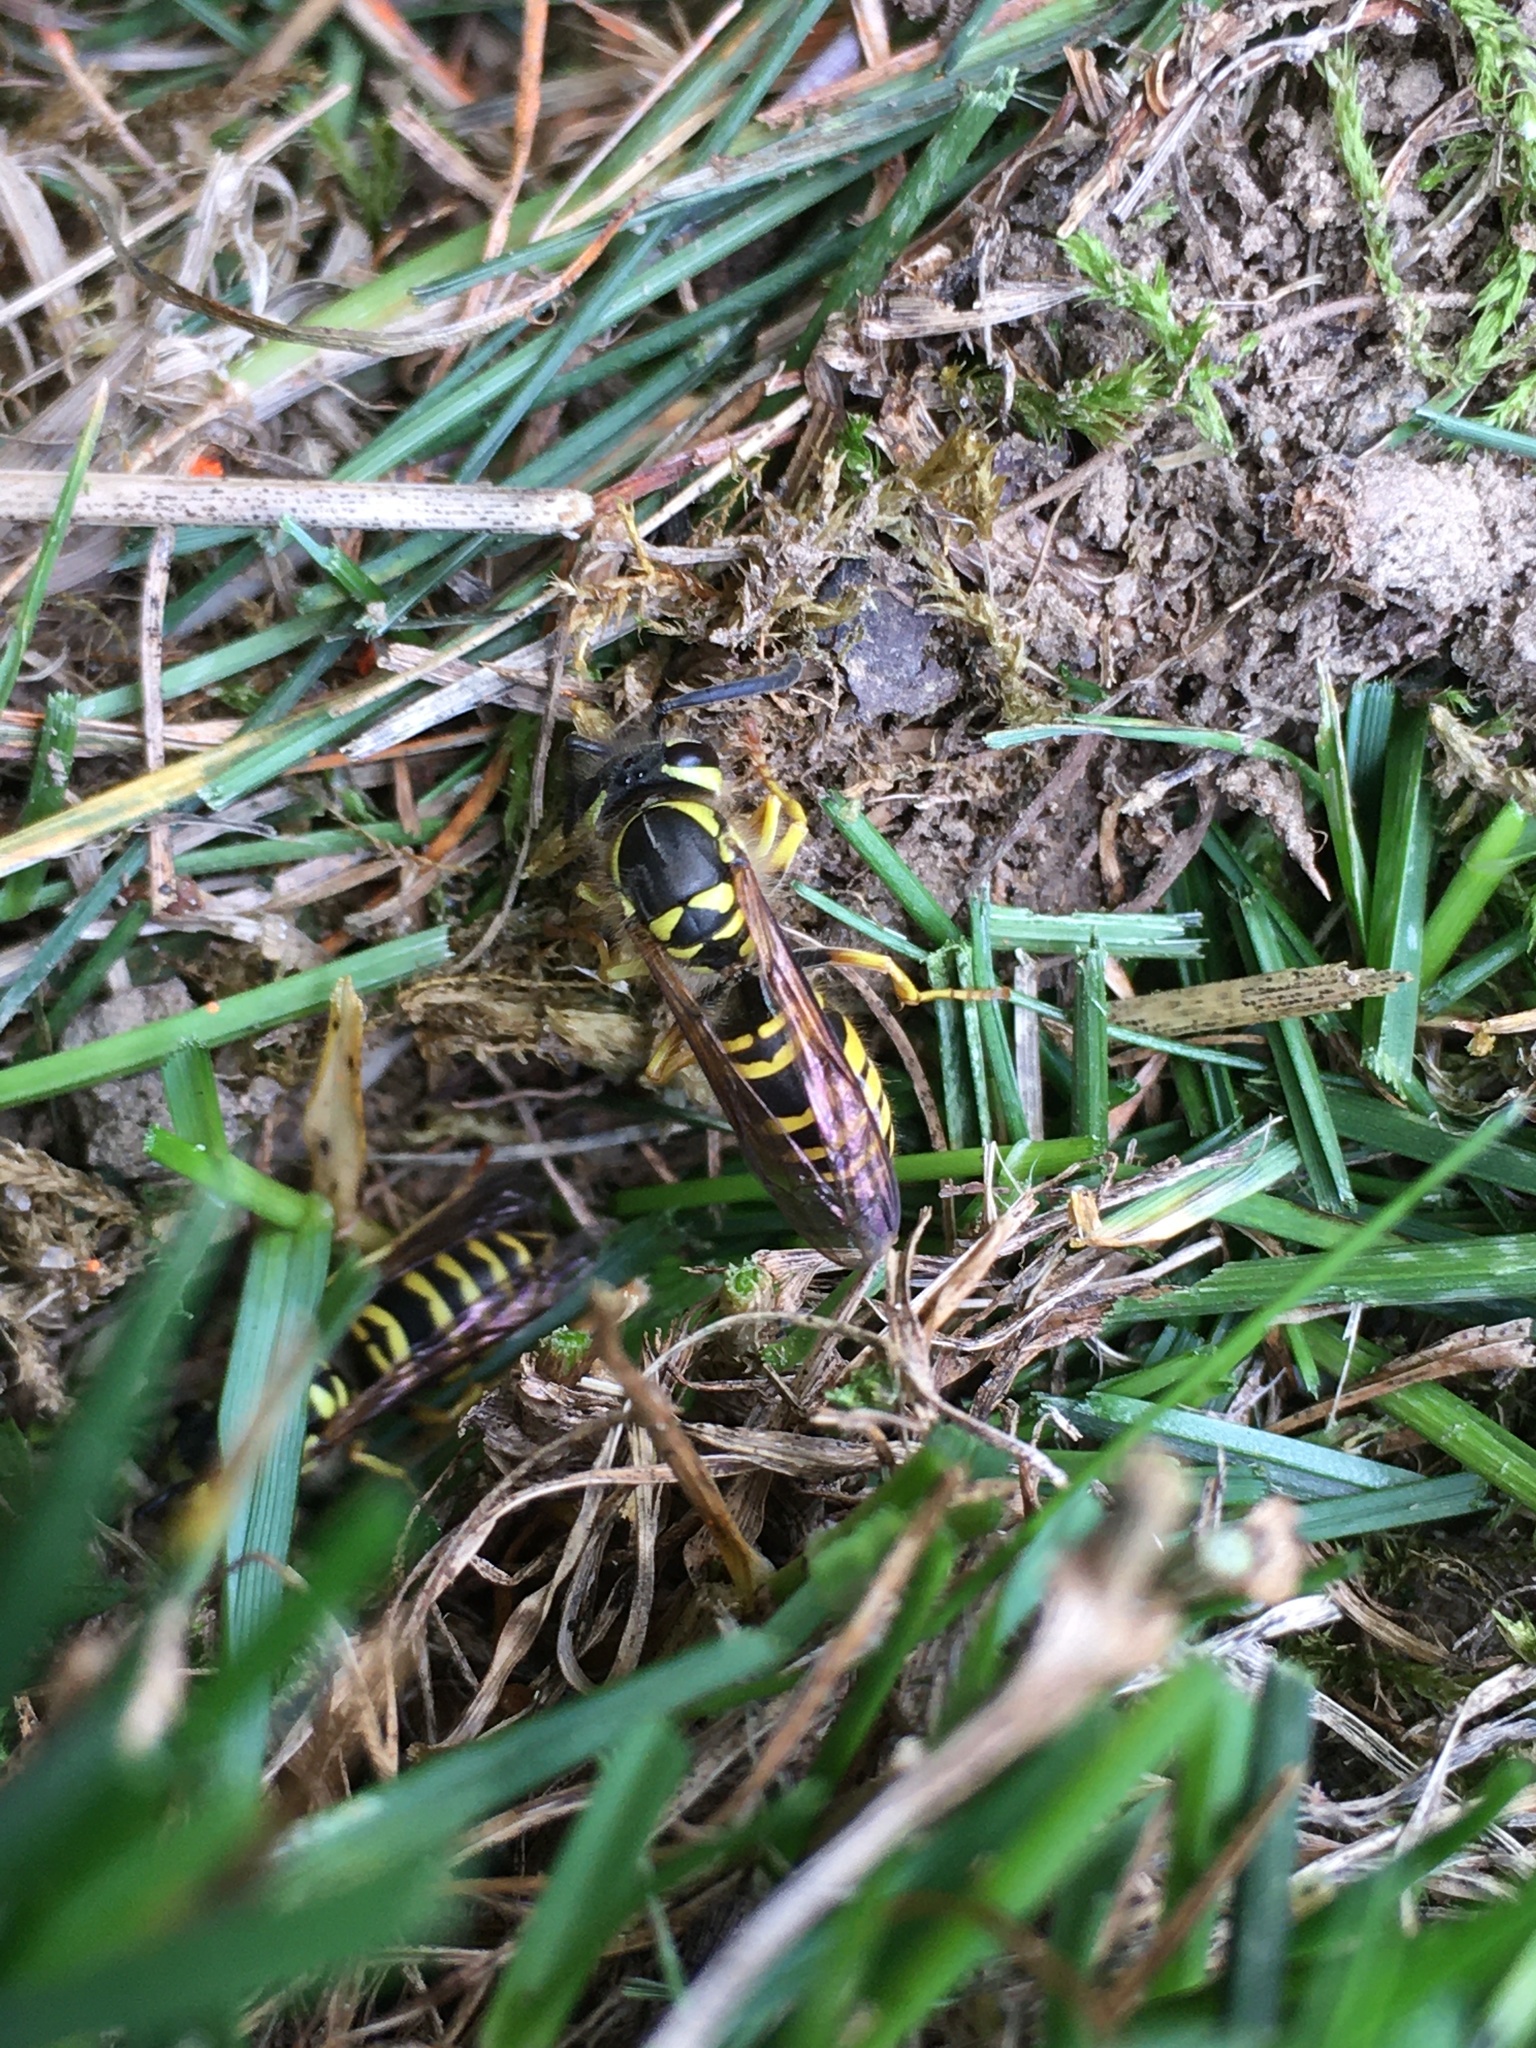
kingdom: Animalia
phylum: Arthropoda
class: Insecta
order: Hymenoptera
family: Vespidae
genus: Vespula
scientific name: Vespula maculifrons
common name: Eastern yellowjacket
